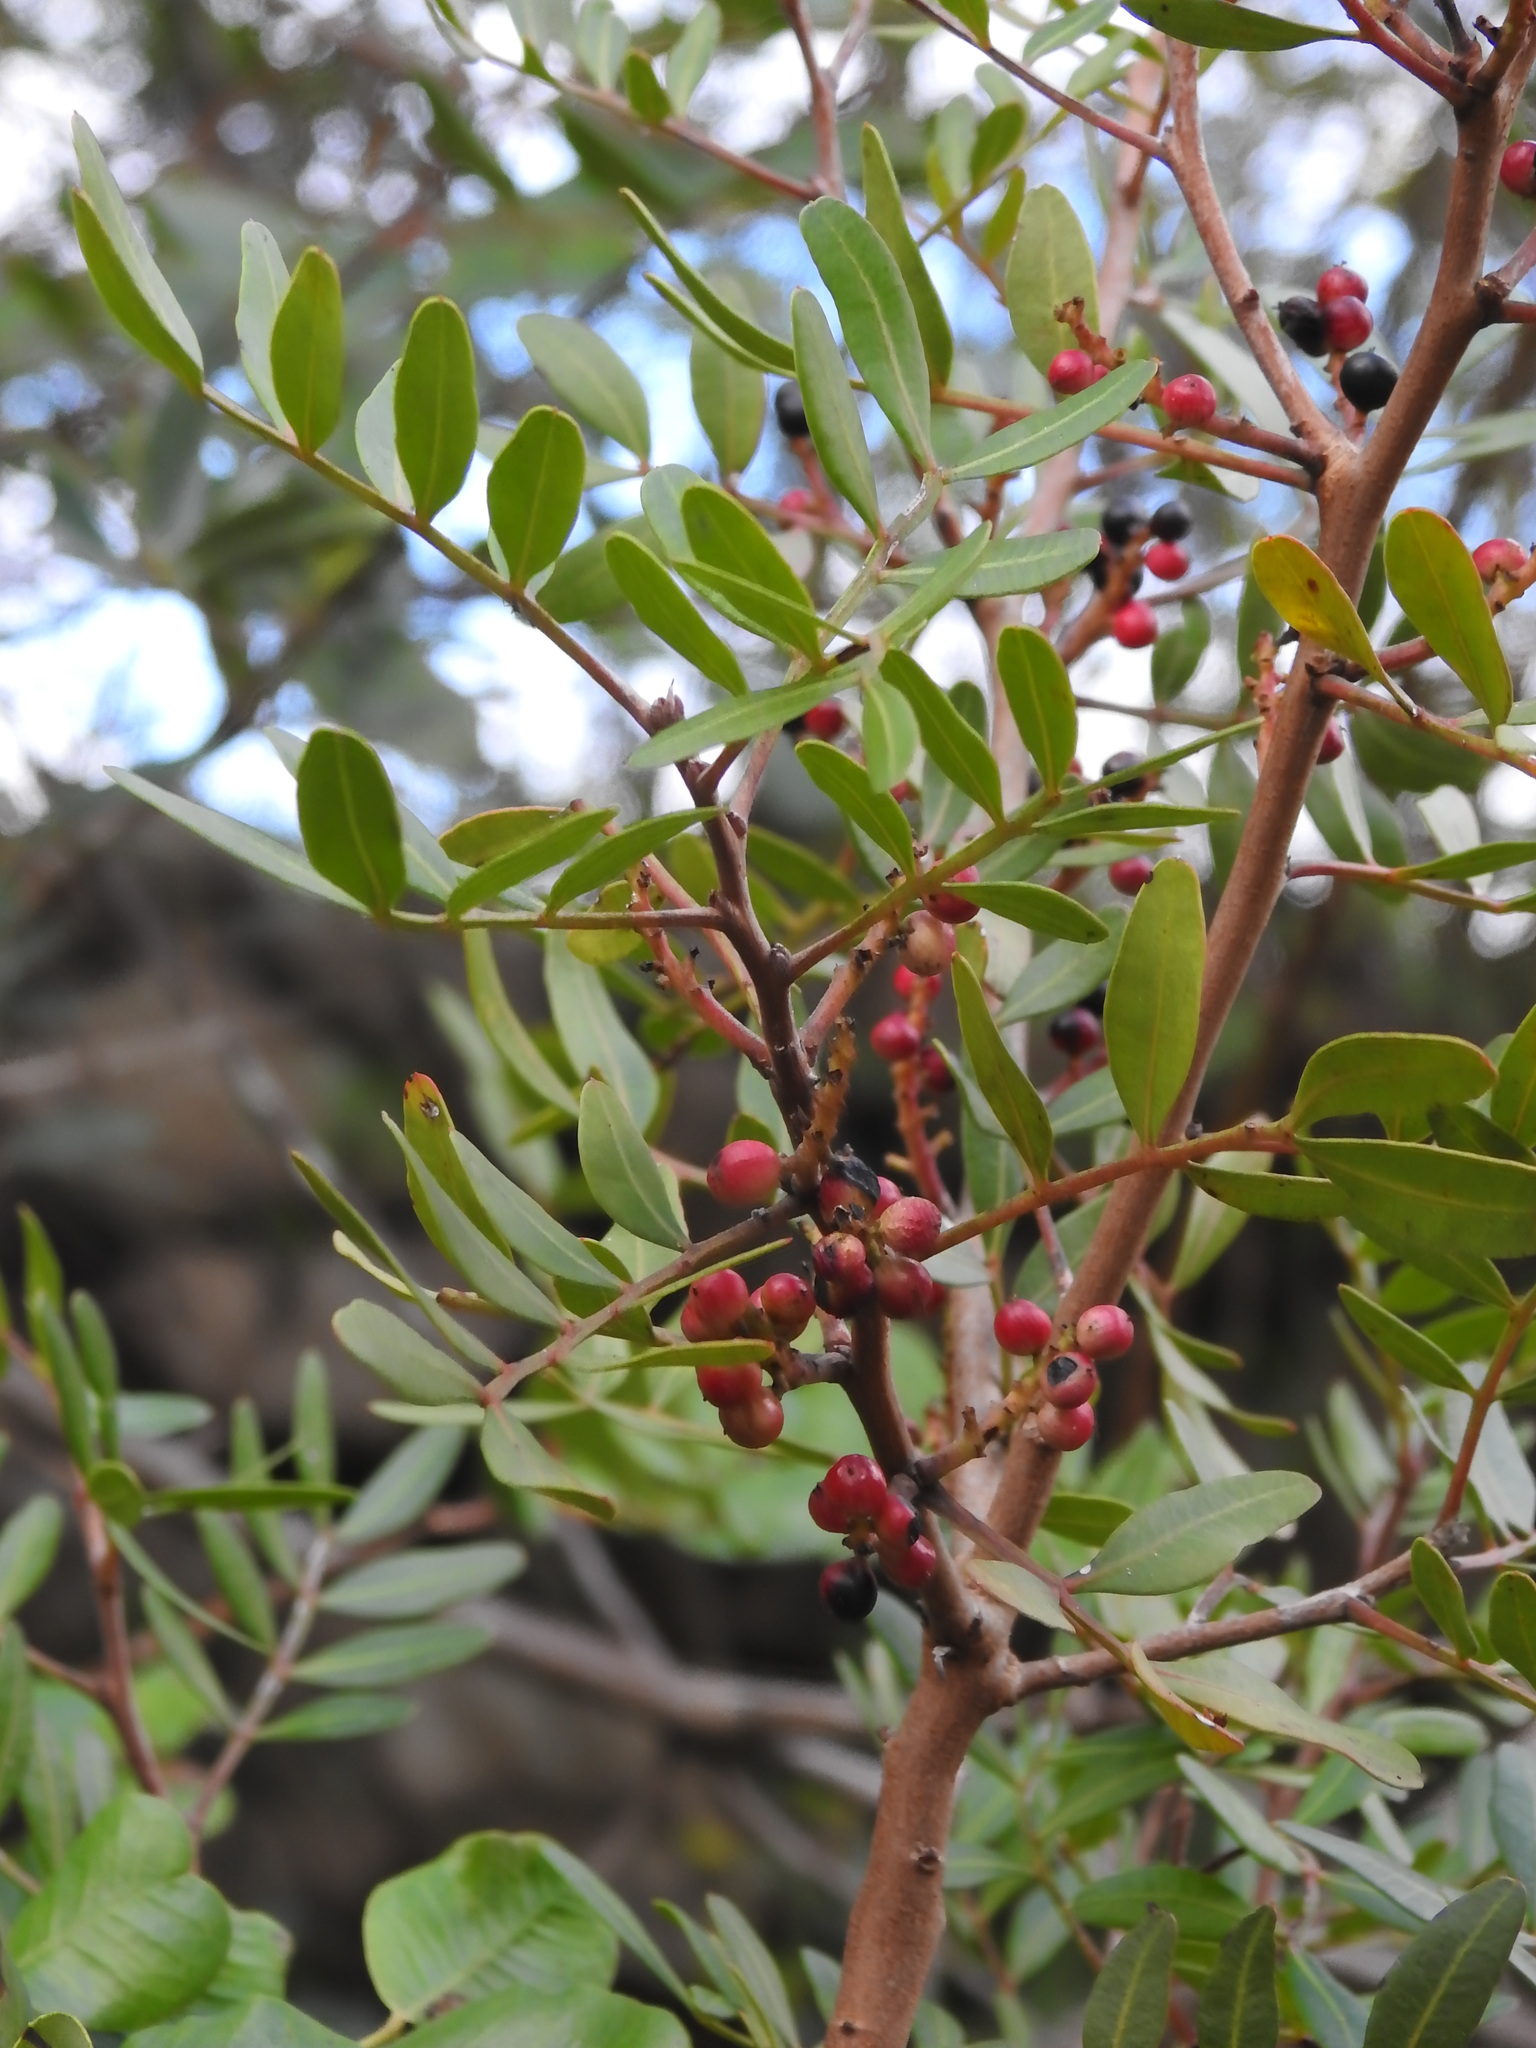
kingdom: Plantae
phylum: Tracheophyta
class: Magnoliopsida
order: Sapindales
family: Anacardiaceae
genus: Pistacia
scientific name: Pistacia lentiscus
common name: Lentisk
